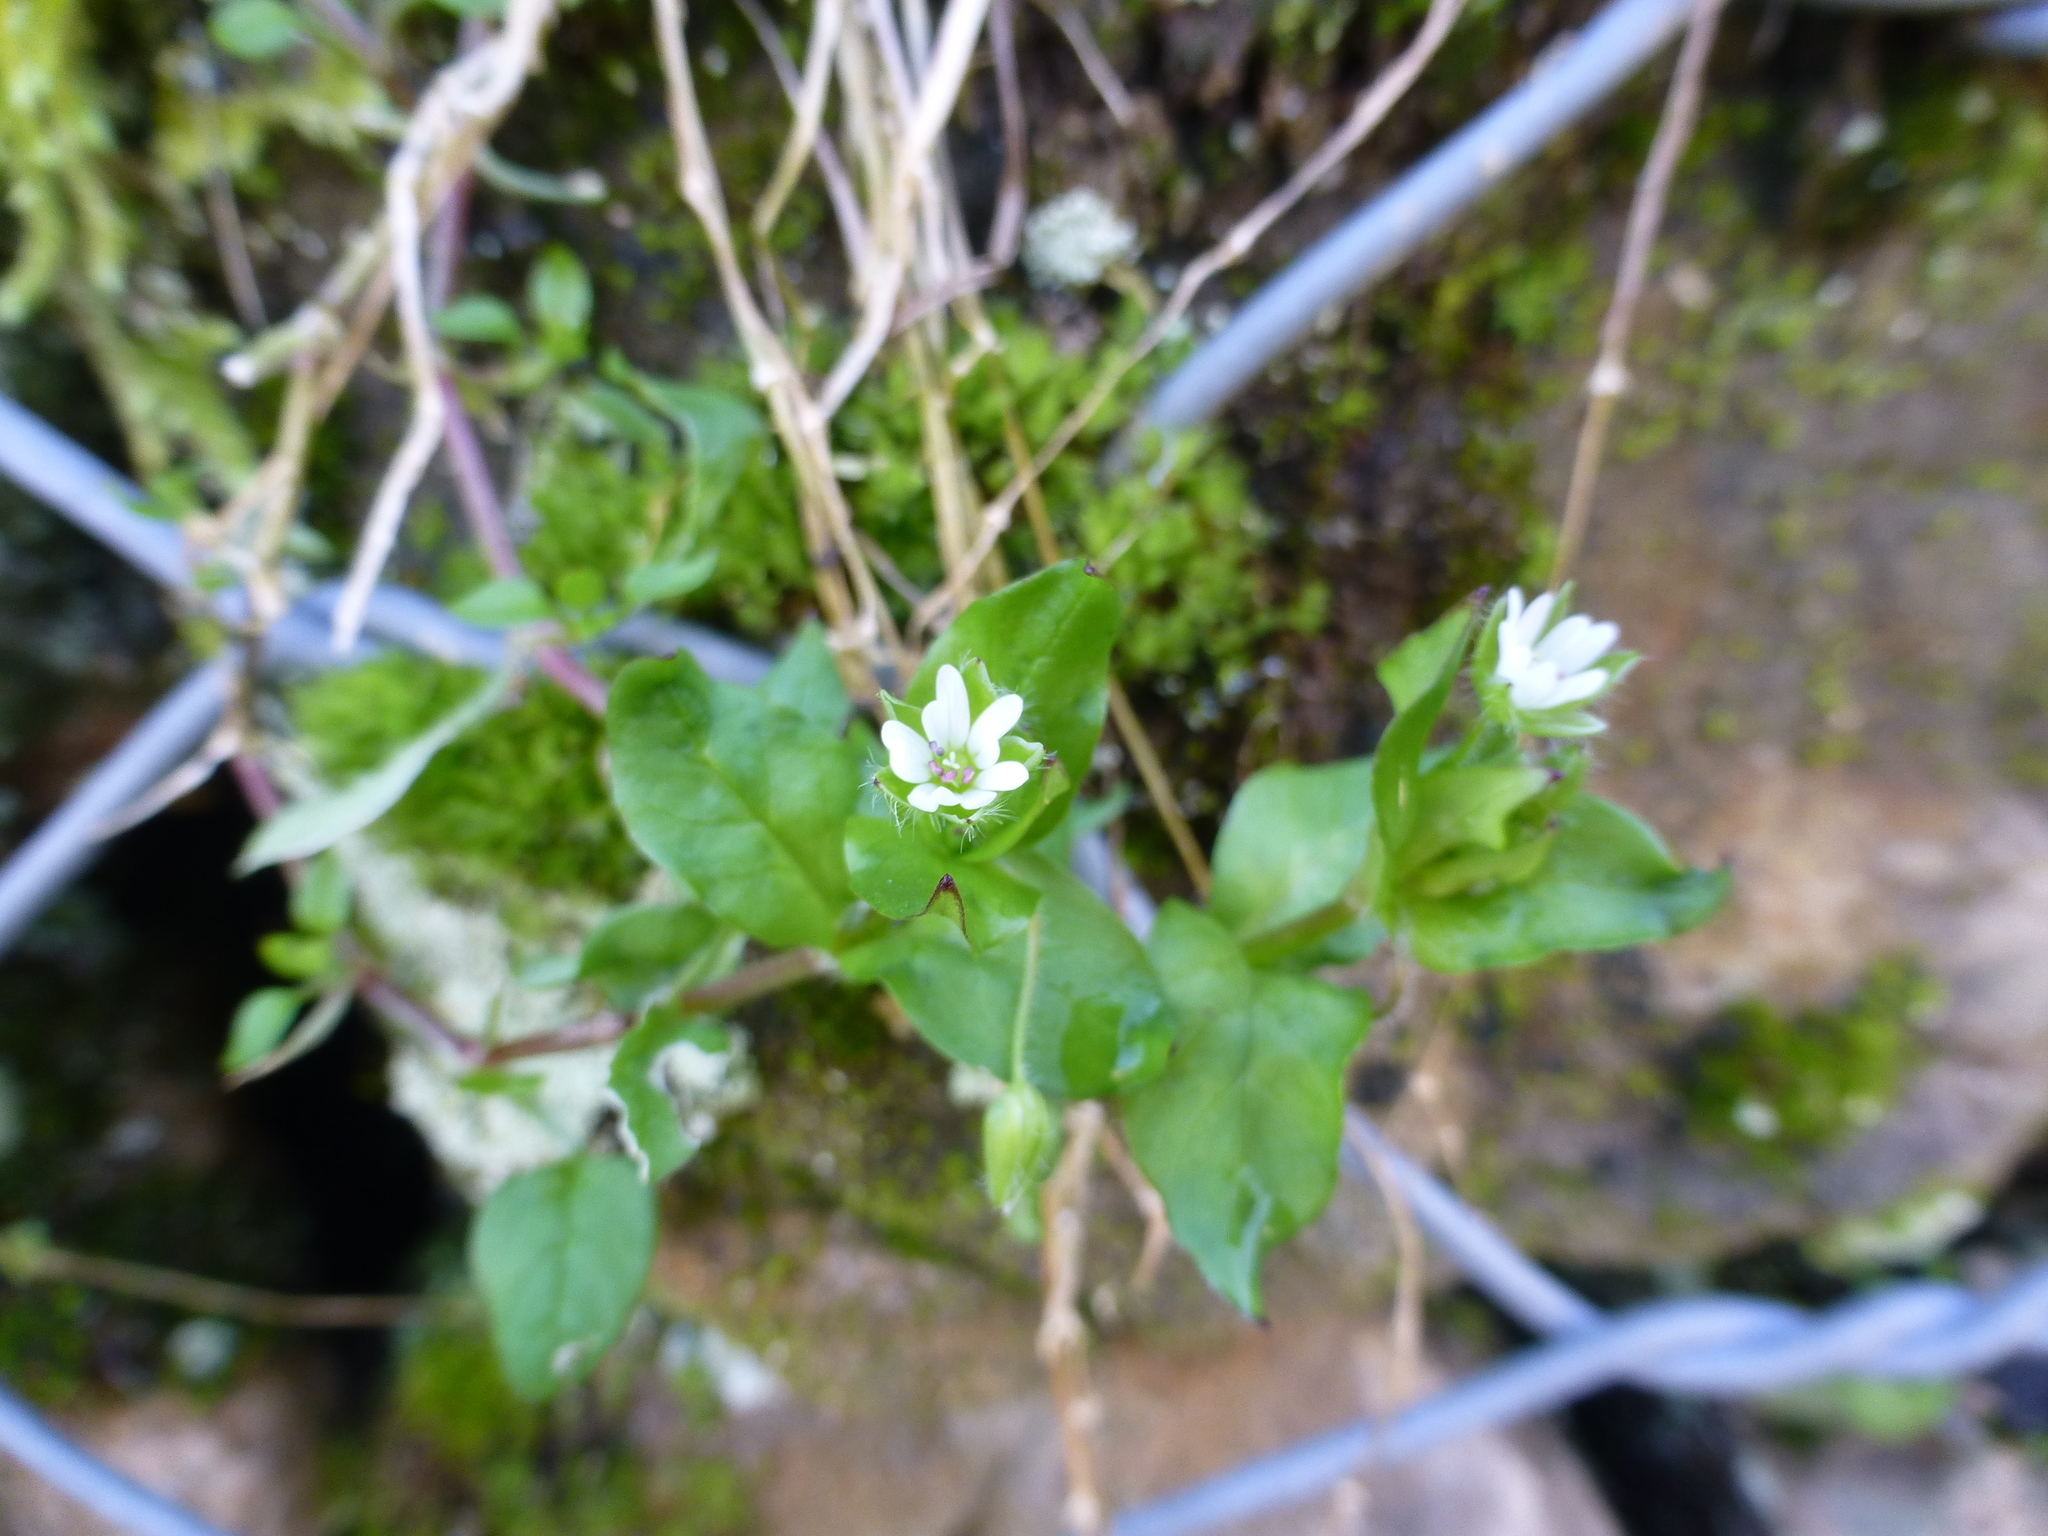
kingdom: Plantae
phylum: Tracheophyta
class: Magnoliopsida
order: Caryophyllales
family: Caryophyllaceae
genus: Stellaria
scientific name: Stellaria media
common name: Common chickweed
